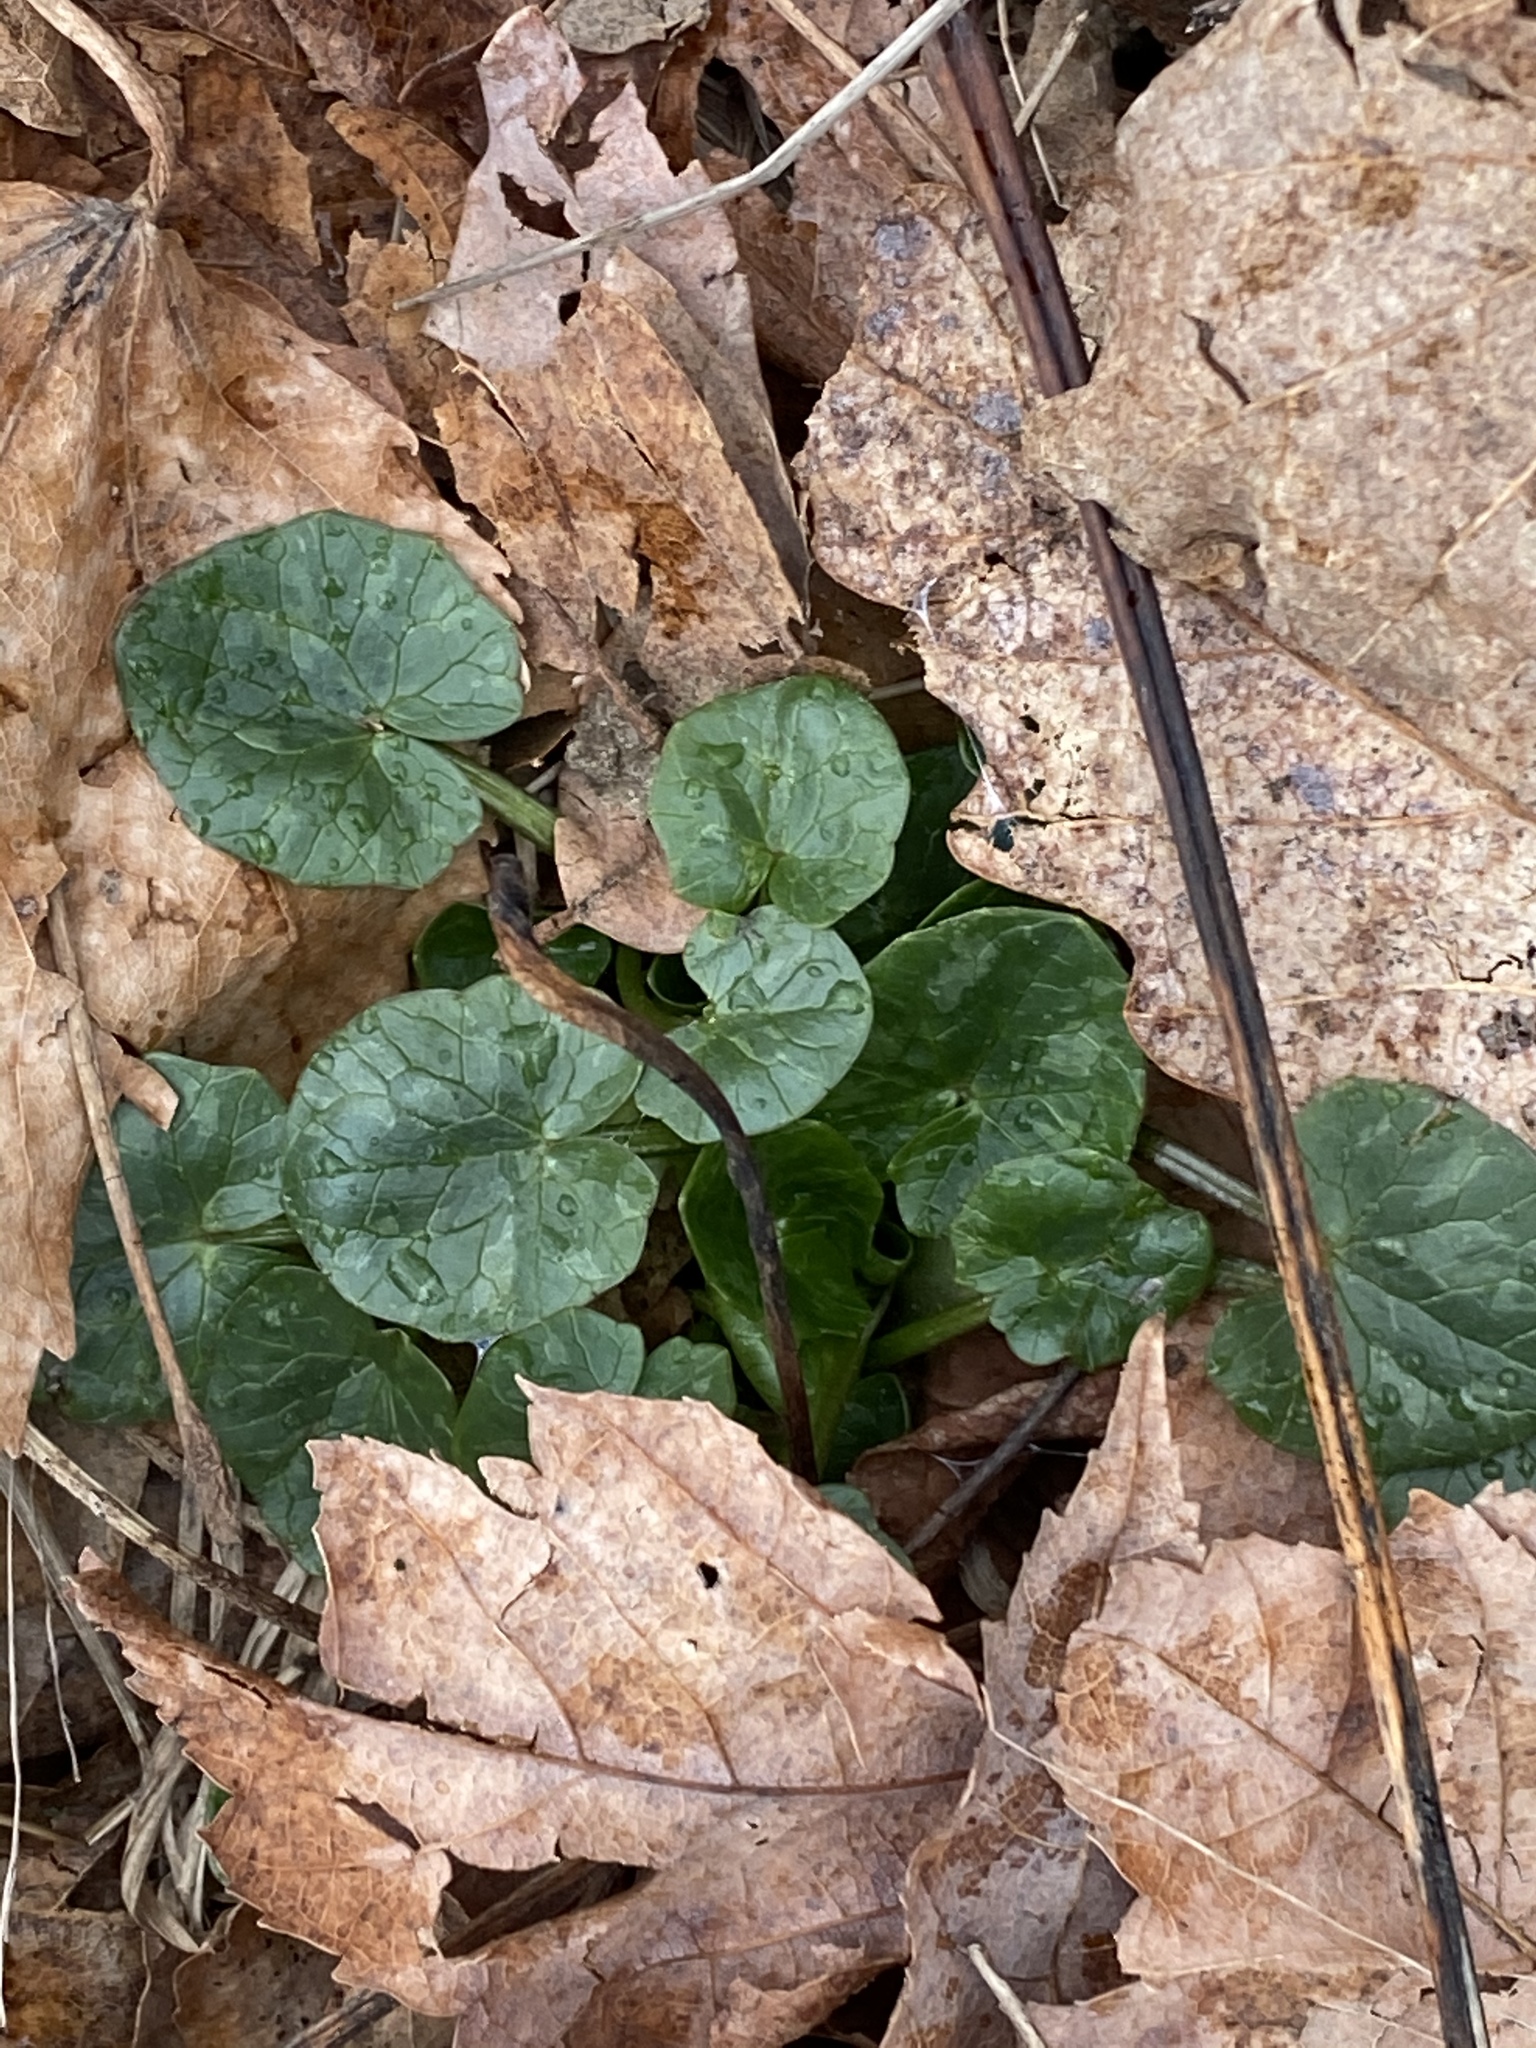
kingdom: Plantae
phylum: Tracheophyta
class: Magnoliopsida
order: Ranunculales
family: Ranunculaceae
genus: Ficaria
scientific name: Ficaria verna
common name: Lesser celandine
